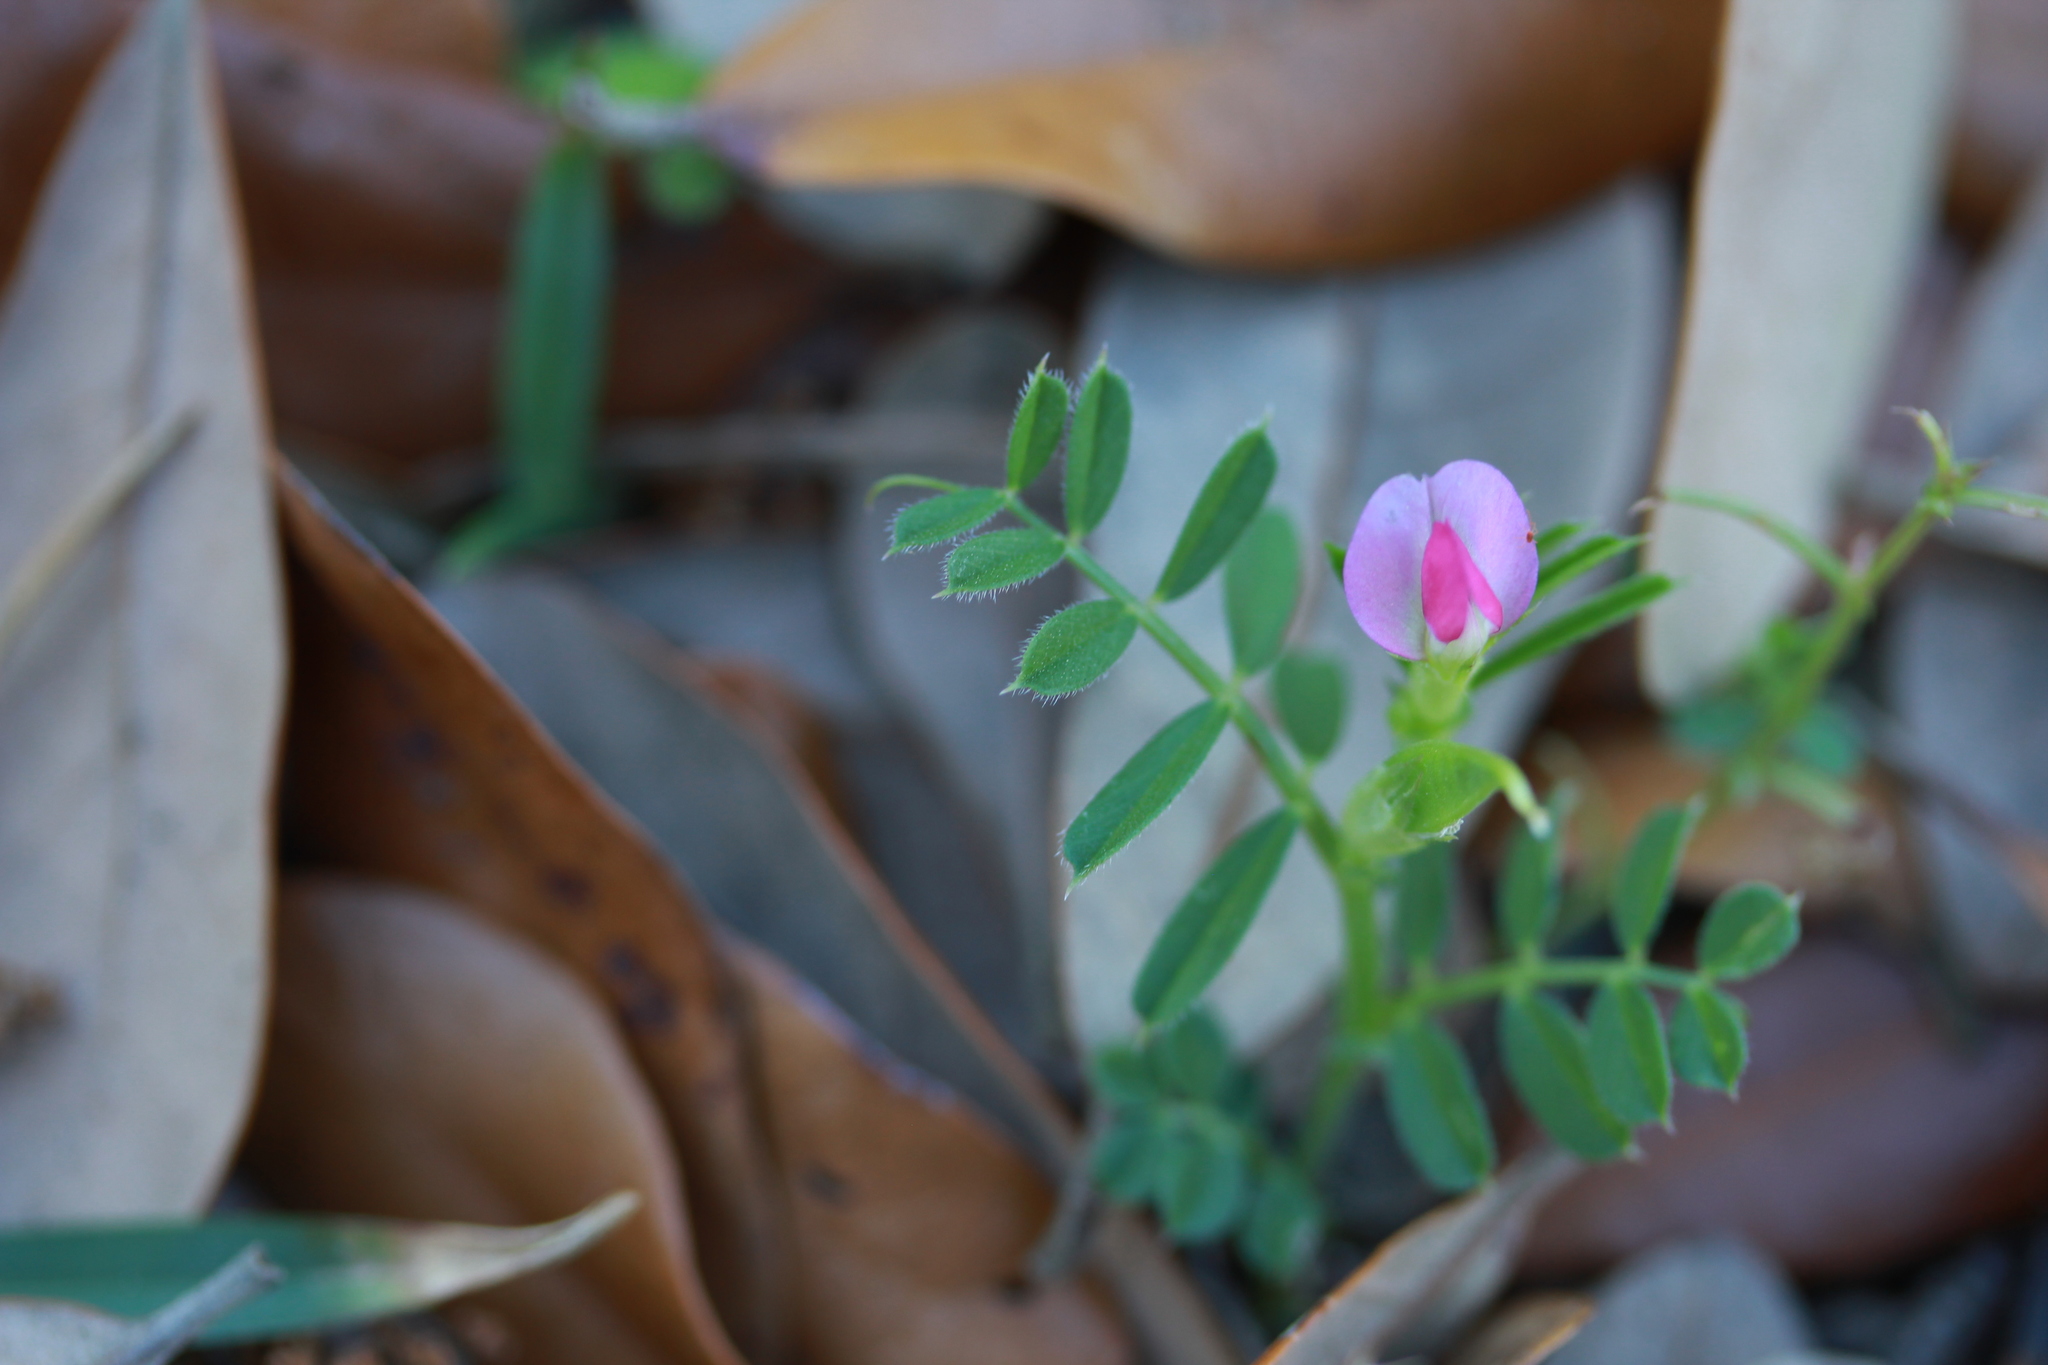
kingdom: Plantae
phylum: Tracheophyta
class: Magnoliopsida
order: Fabales
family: Fabaceae
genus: Vicia
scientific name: Vicia sativa
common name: Garden vetch
